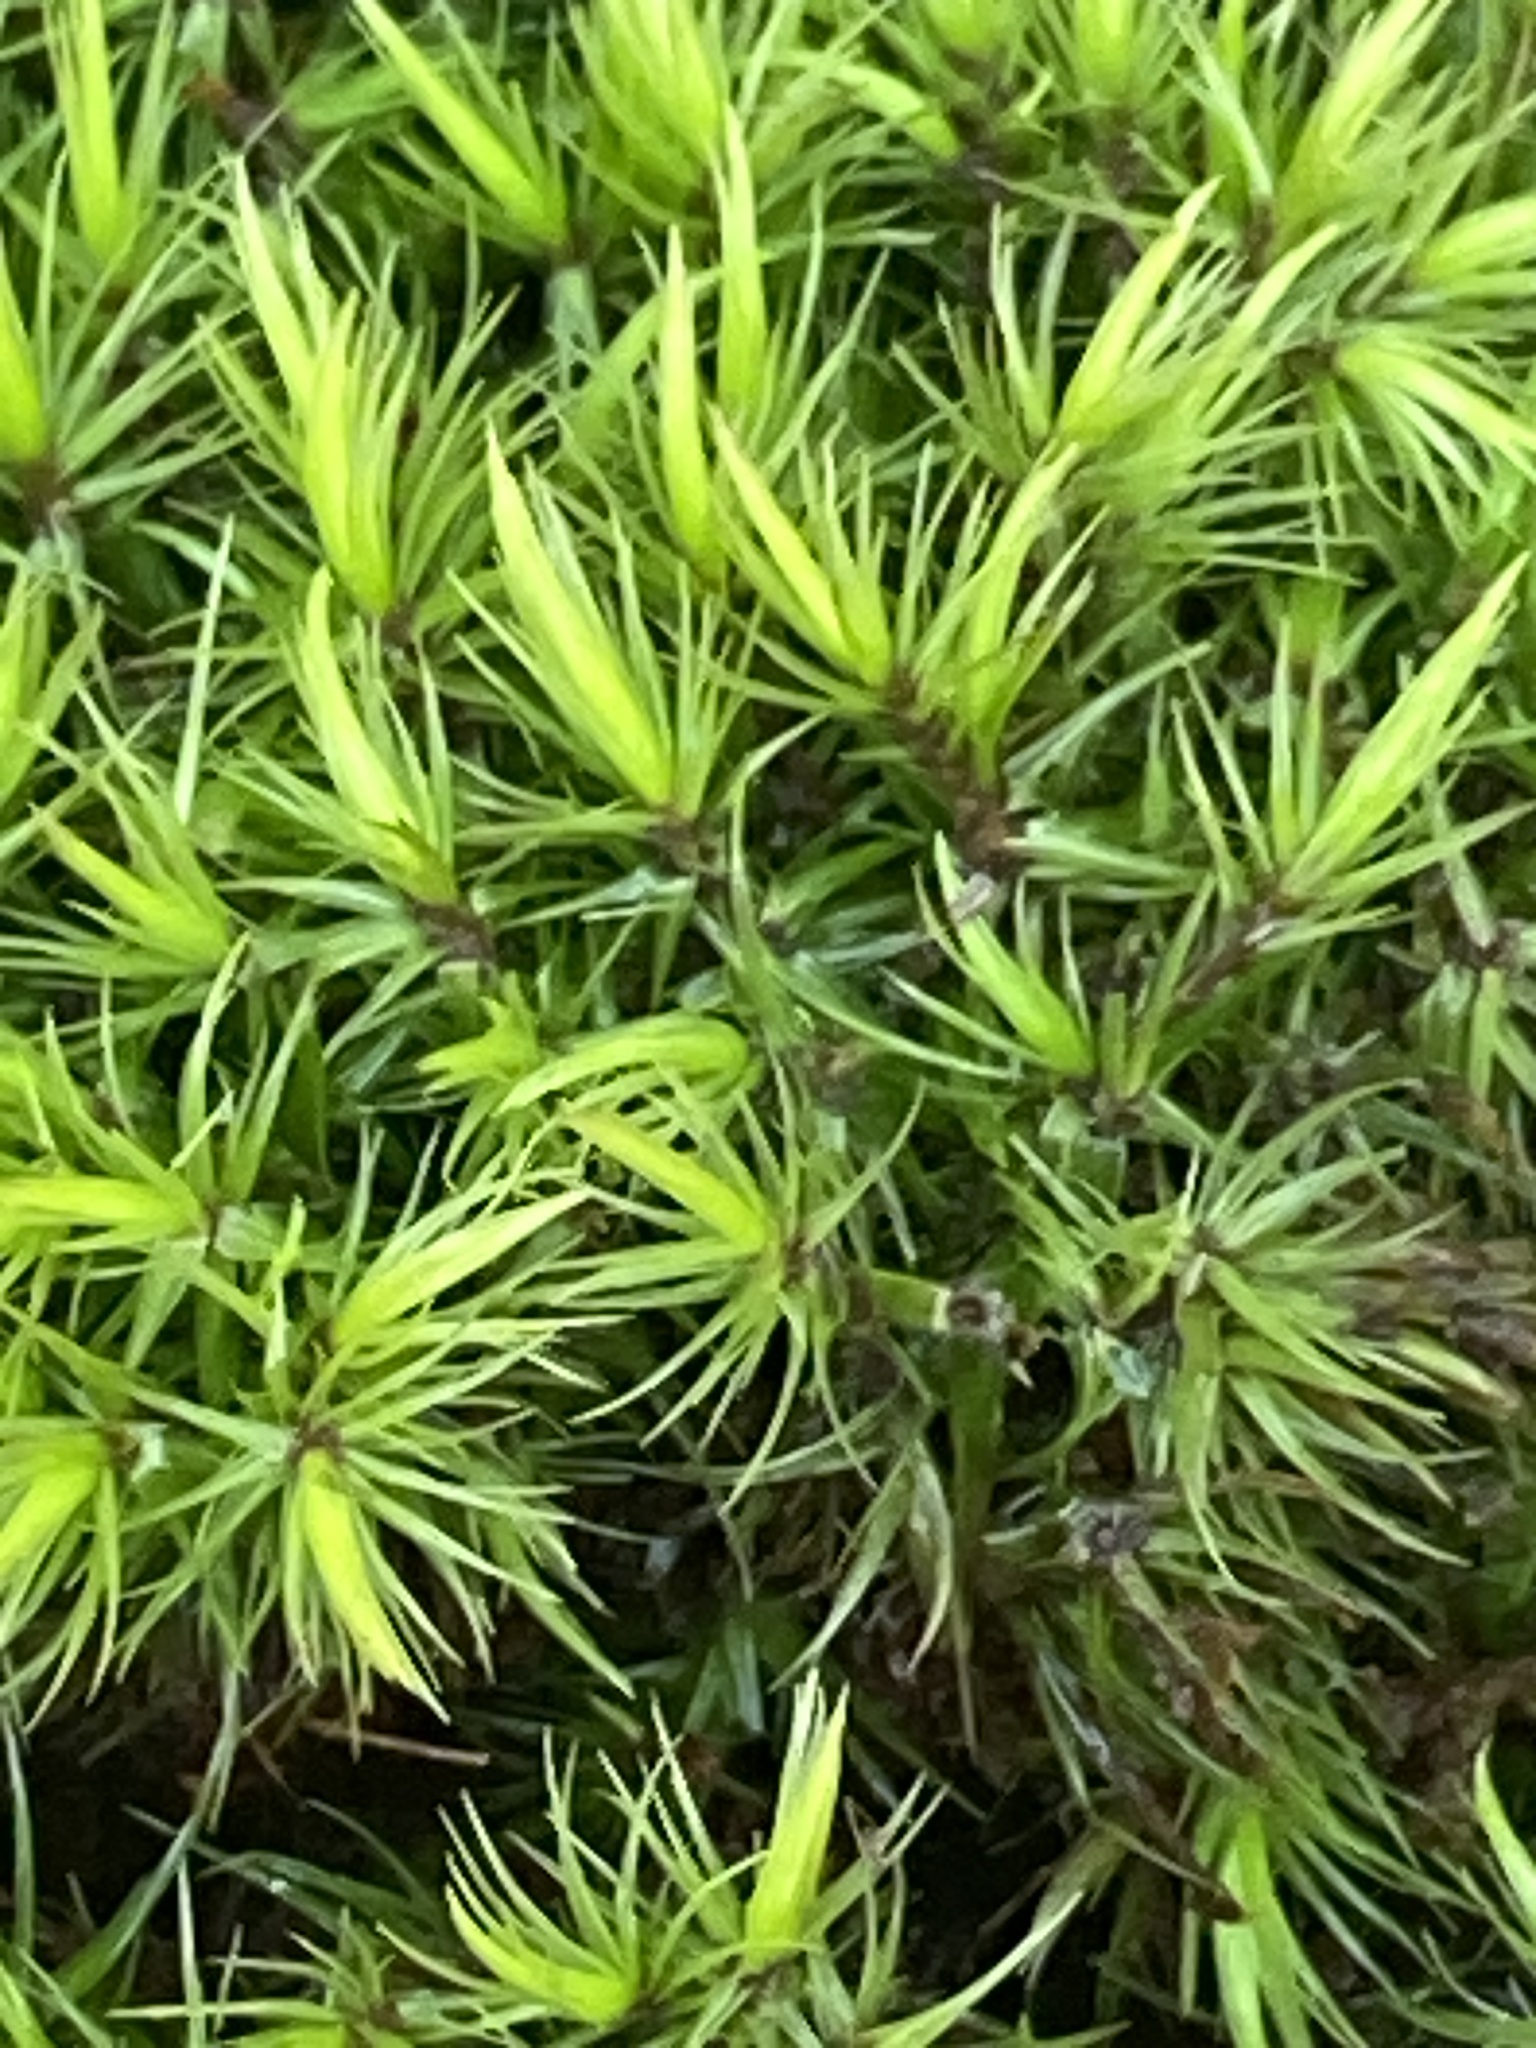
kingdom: Plantae
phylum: Bryophyta
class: Bryopsida
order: Dicranales
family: Dicranaceae
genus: Dicranum
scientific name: Dicranum scoparium
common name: Broom fork-moss
